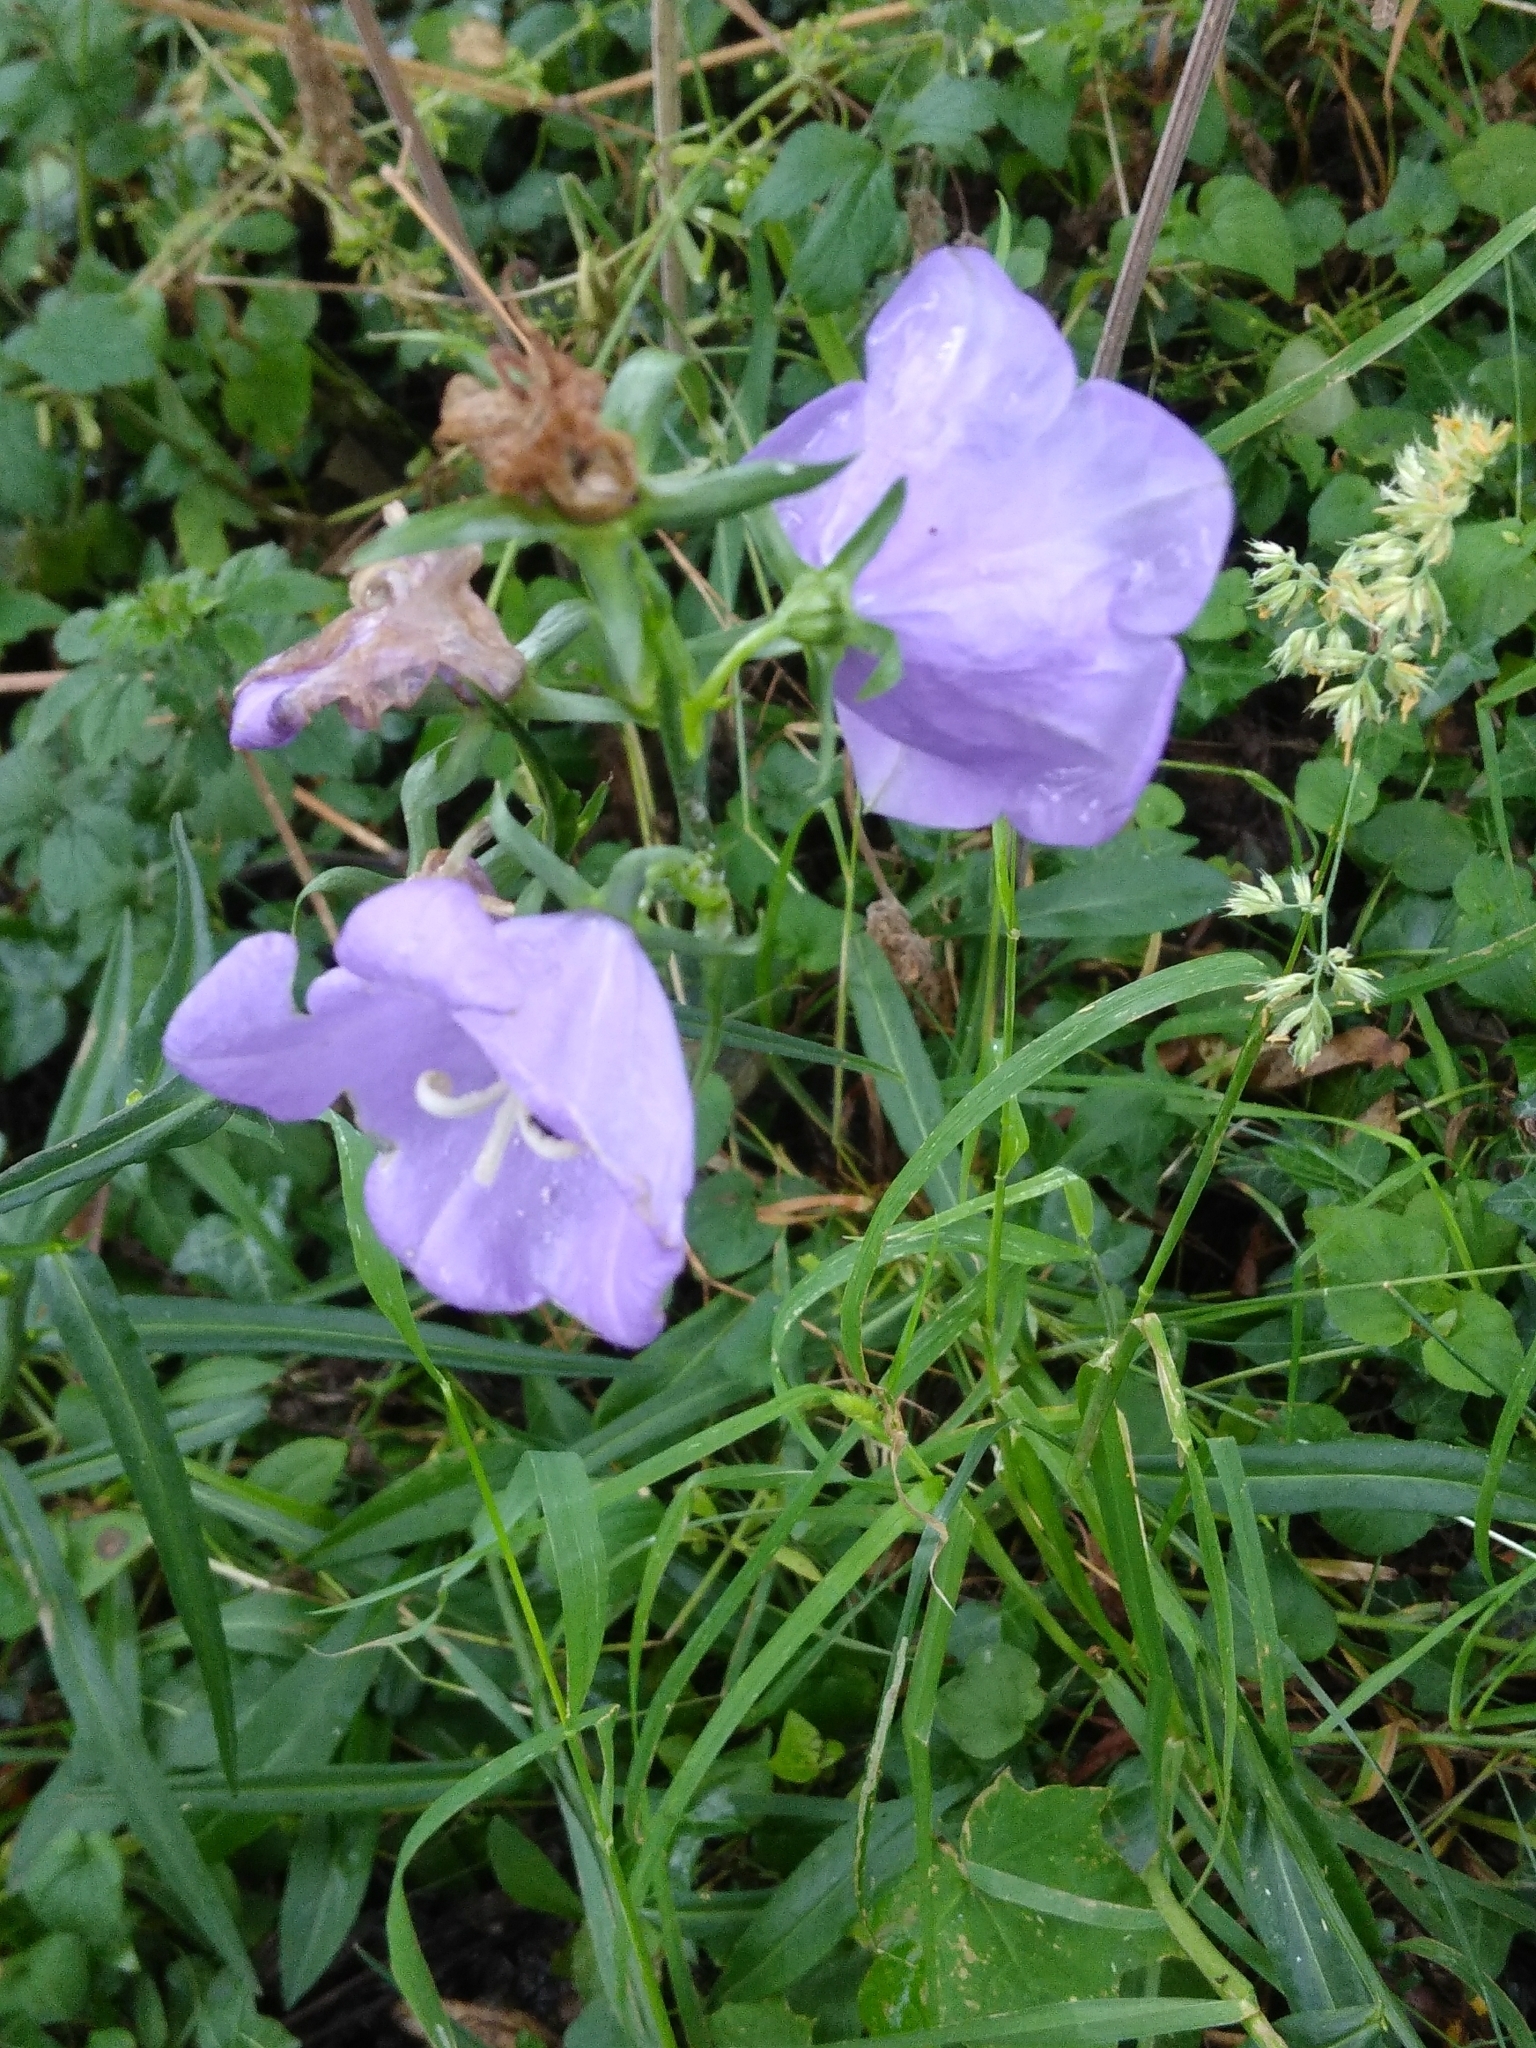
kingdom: Plantae
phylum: Tracheophyta
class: Magnoliopsida
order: Asterales
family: Campanulaceae
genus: Campanula
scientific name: Campanula persicifolia
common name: Peach-leaved bellflower
